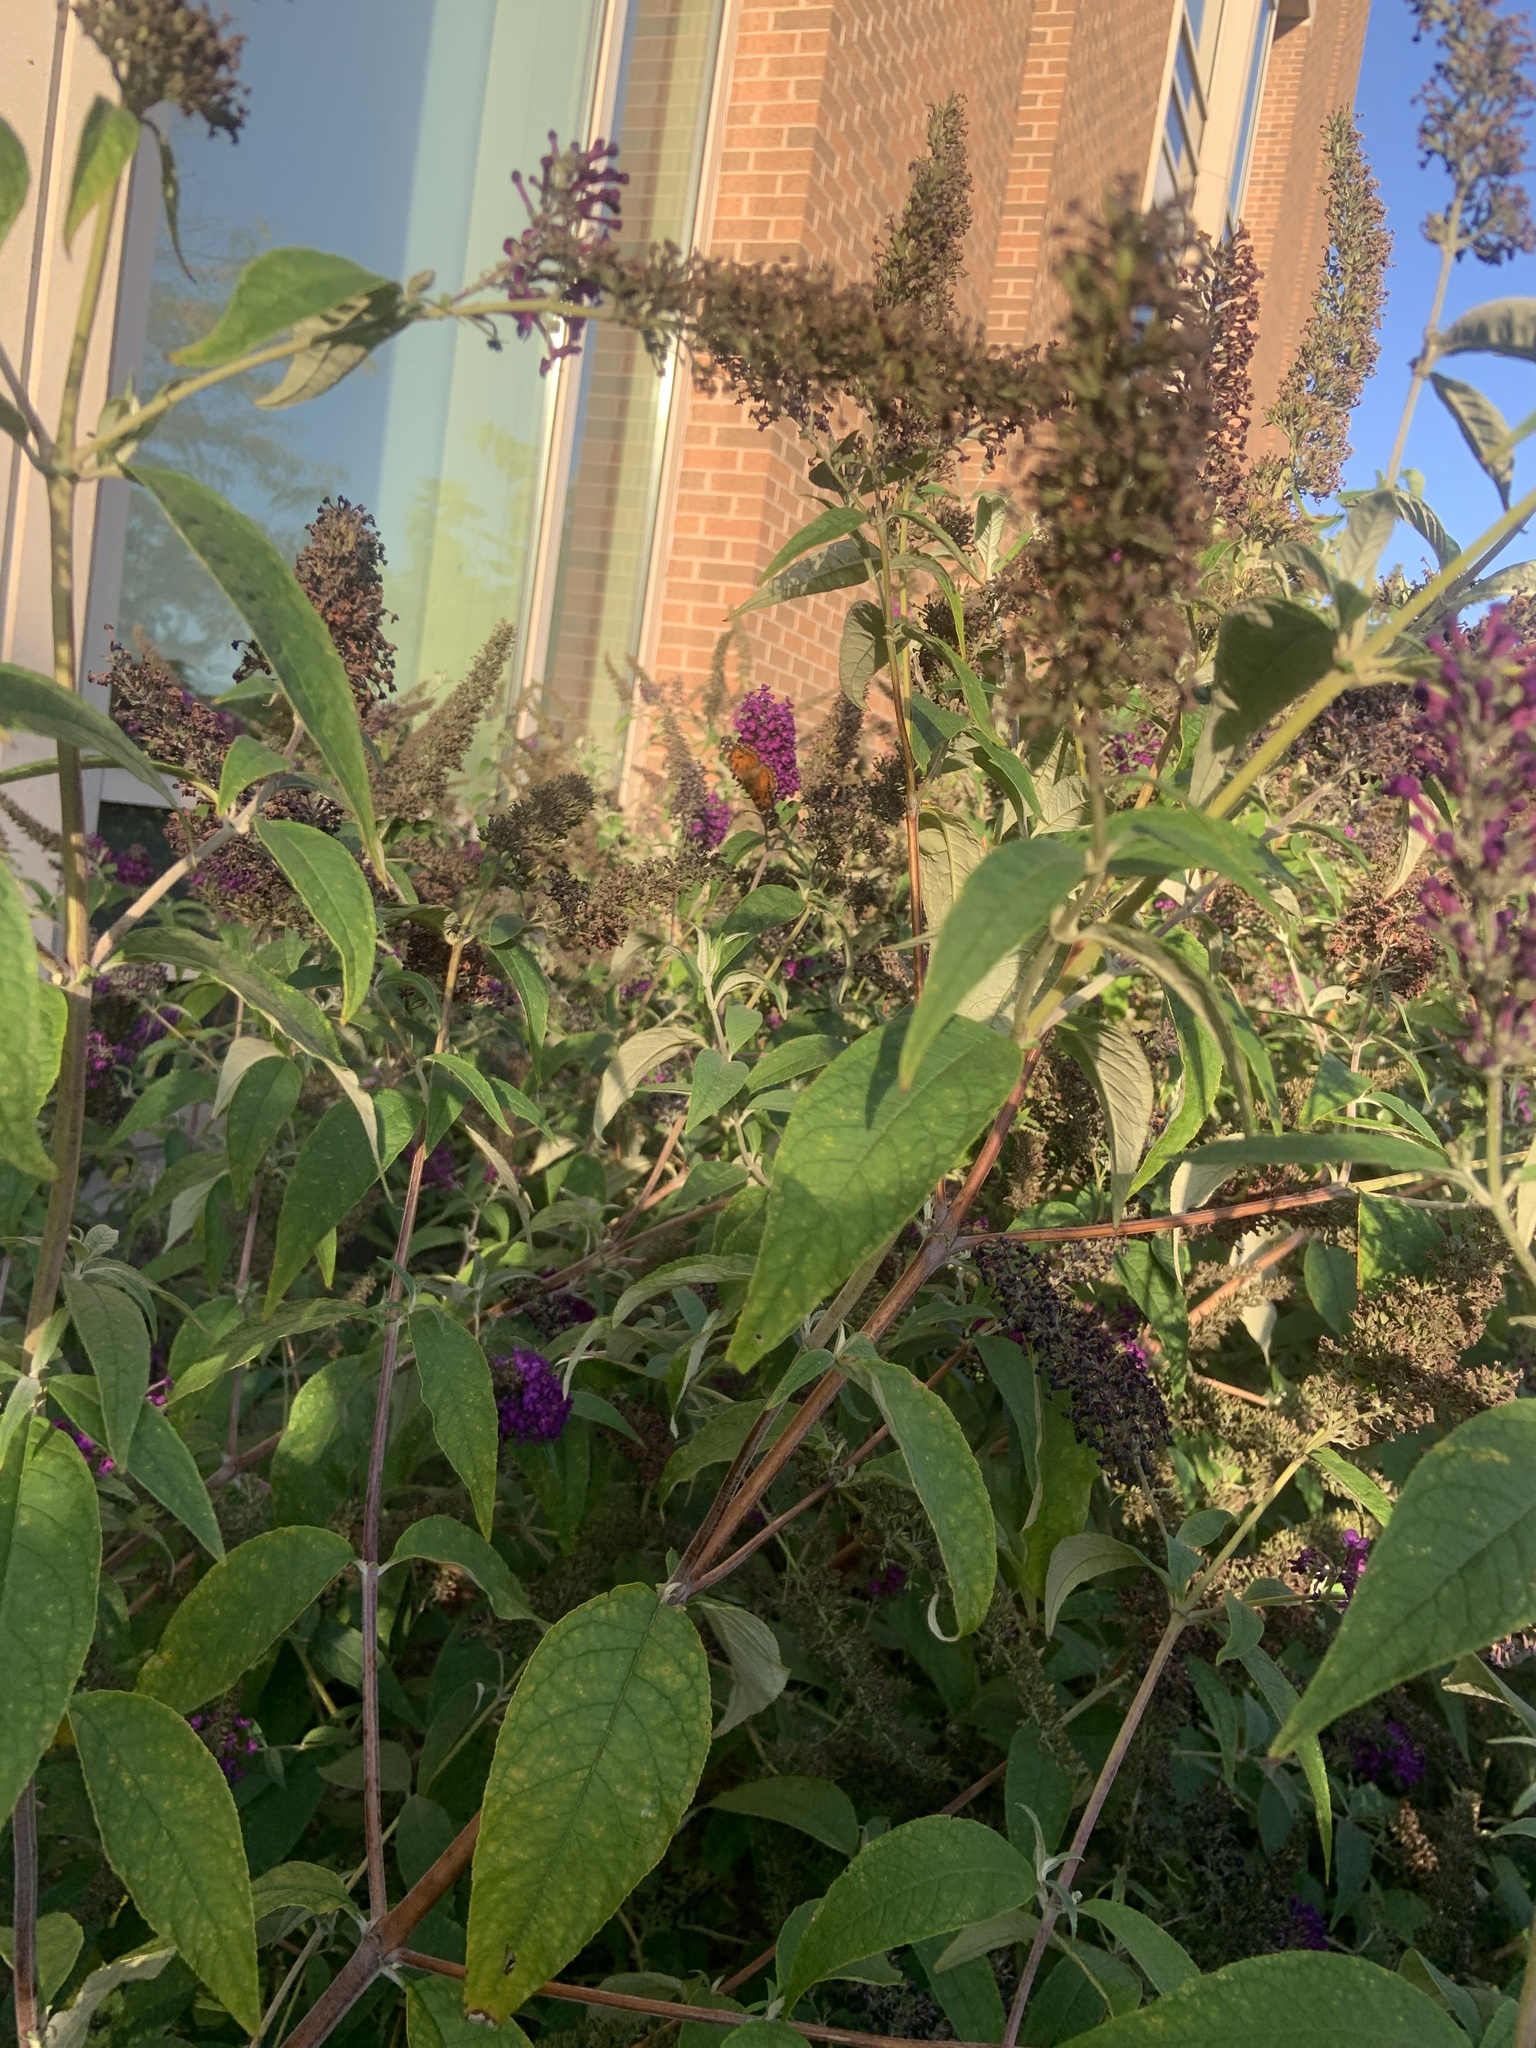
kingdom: Animalia
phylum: Arthropoda
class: Insecta
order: Lepidoptera
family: Nymphalidae
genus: Vanessa
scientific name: Vanessa virginiensis
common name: American lady
